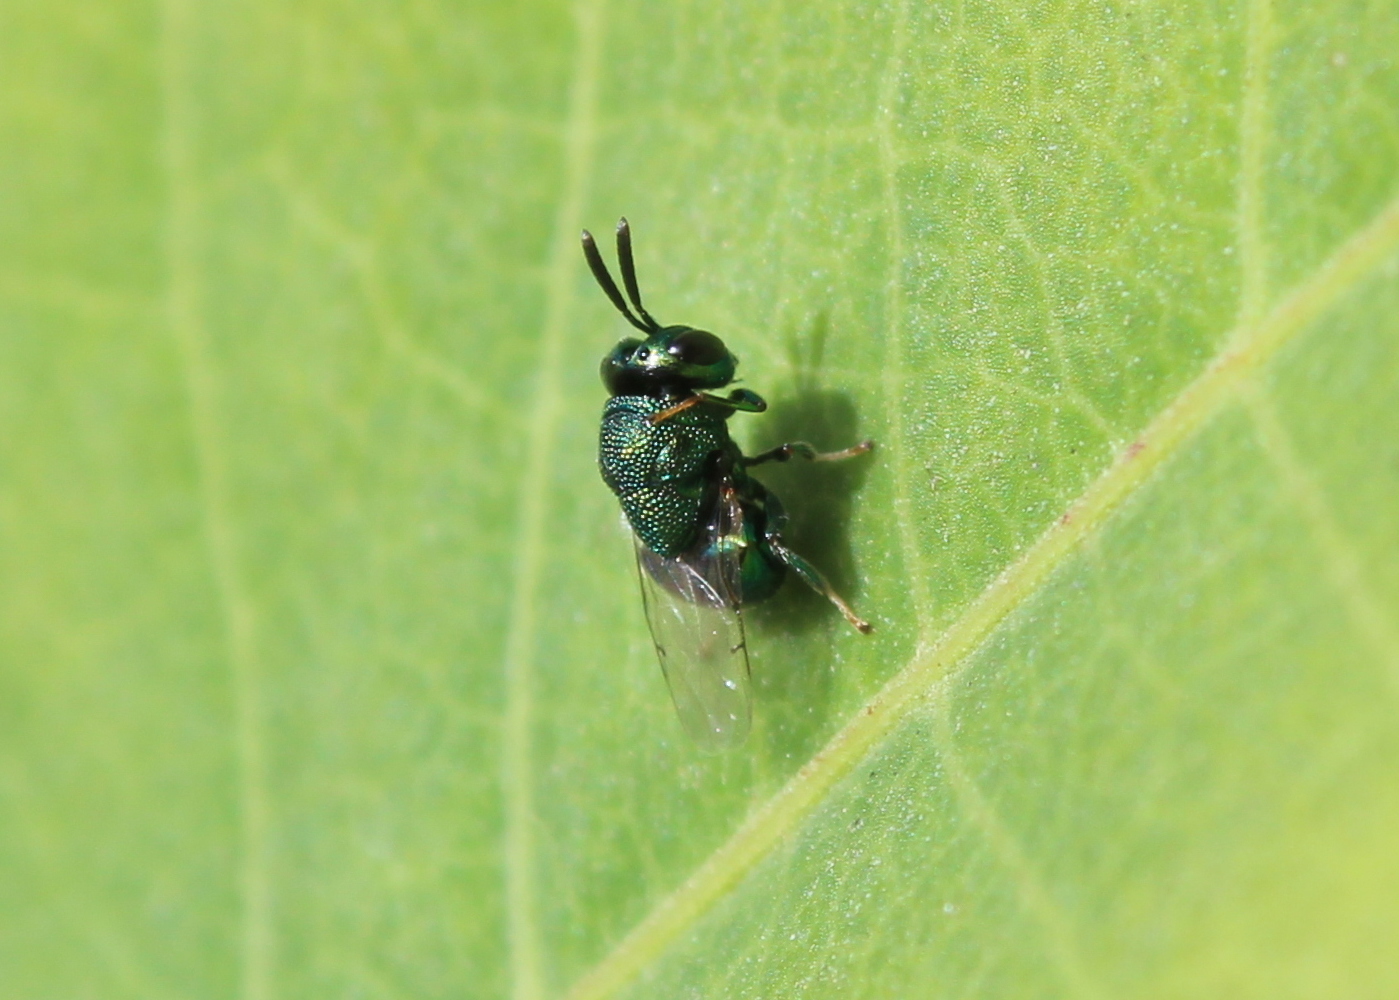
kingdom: Animalia
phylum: Arthropoda
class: Insecta
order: Hymenoptera
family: Perilampidae
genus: Perilampus
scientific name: Perilampus hyalinus
